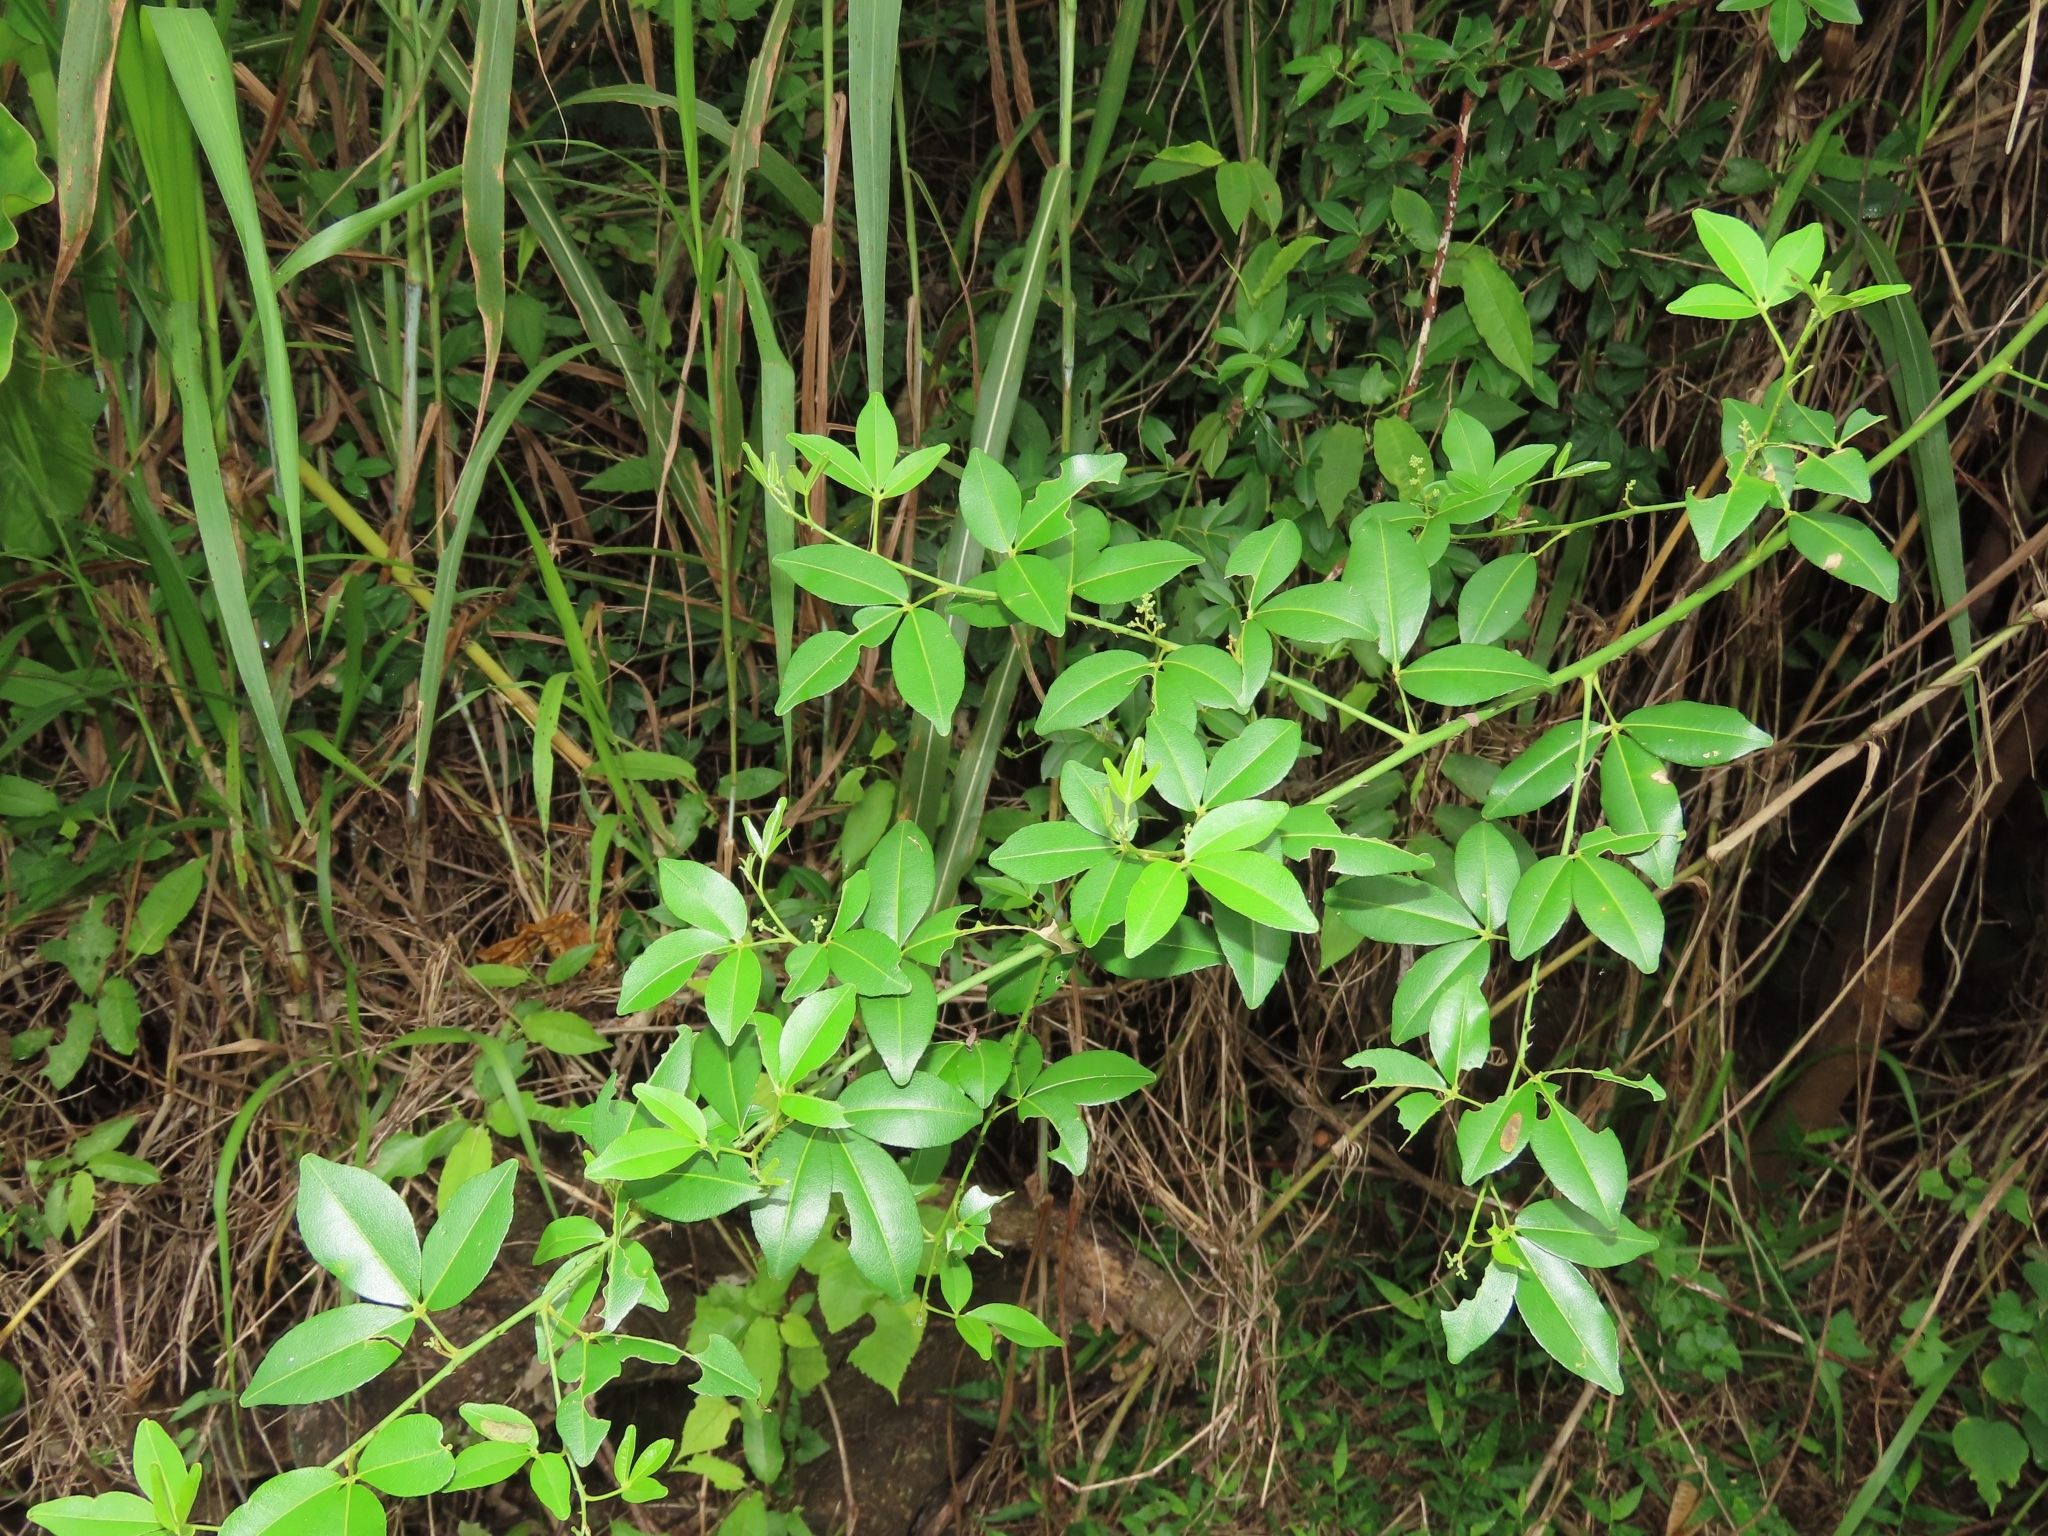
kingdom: Plantae
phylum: Tracheophyta
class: Magnoliopsida
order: Sapindales
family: Rutaceae
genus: Zanthoxylum
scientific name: Zanthoxylum asiaticum
